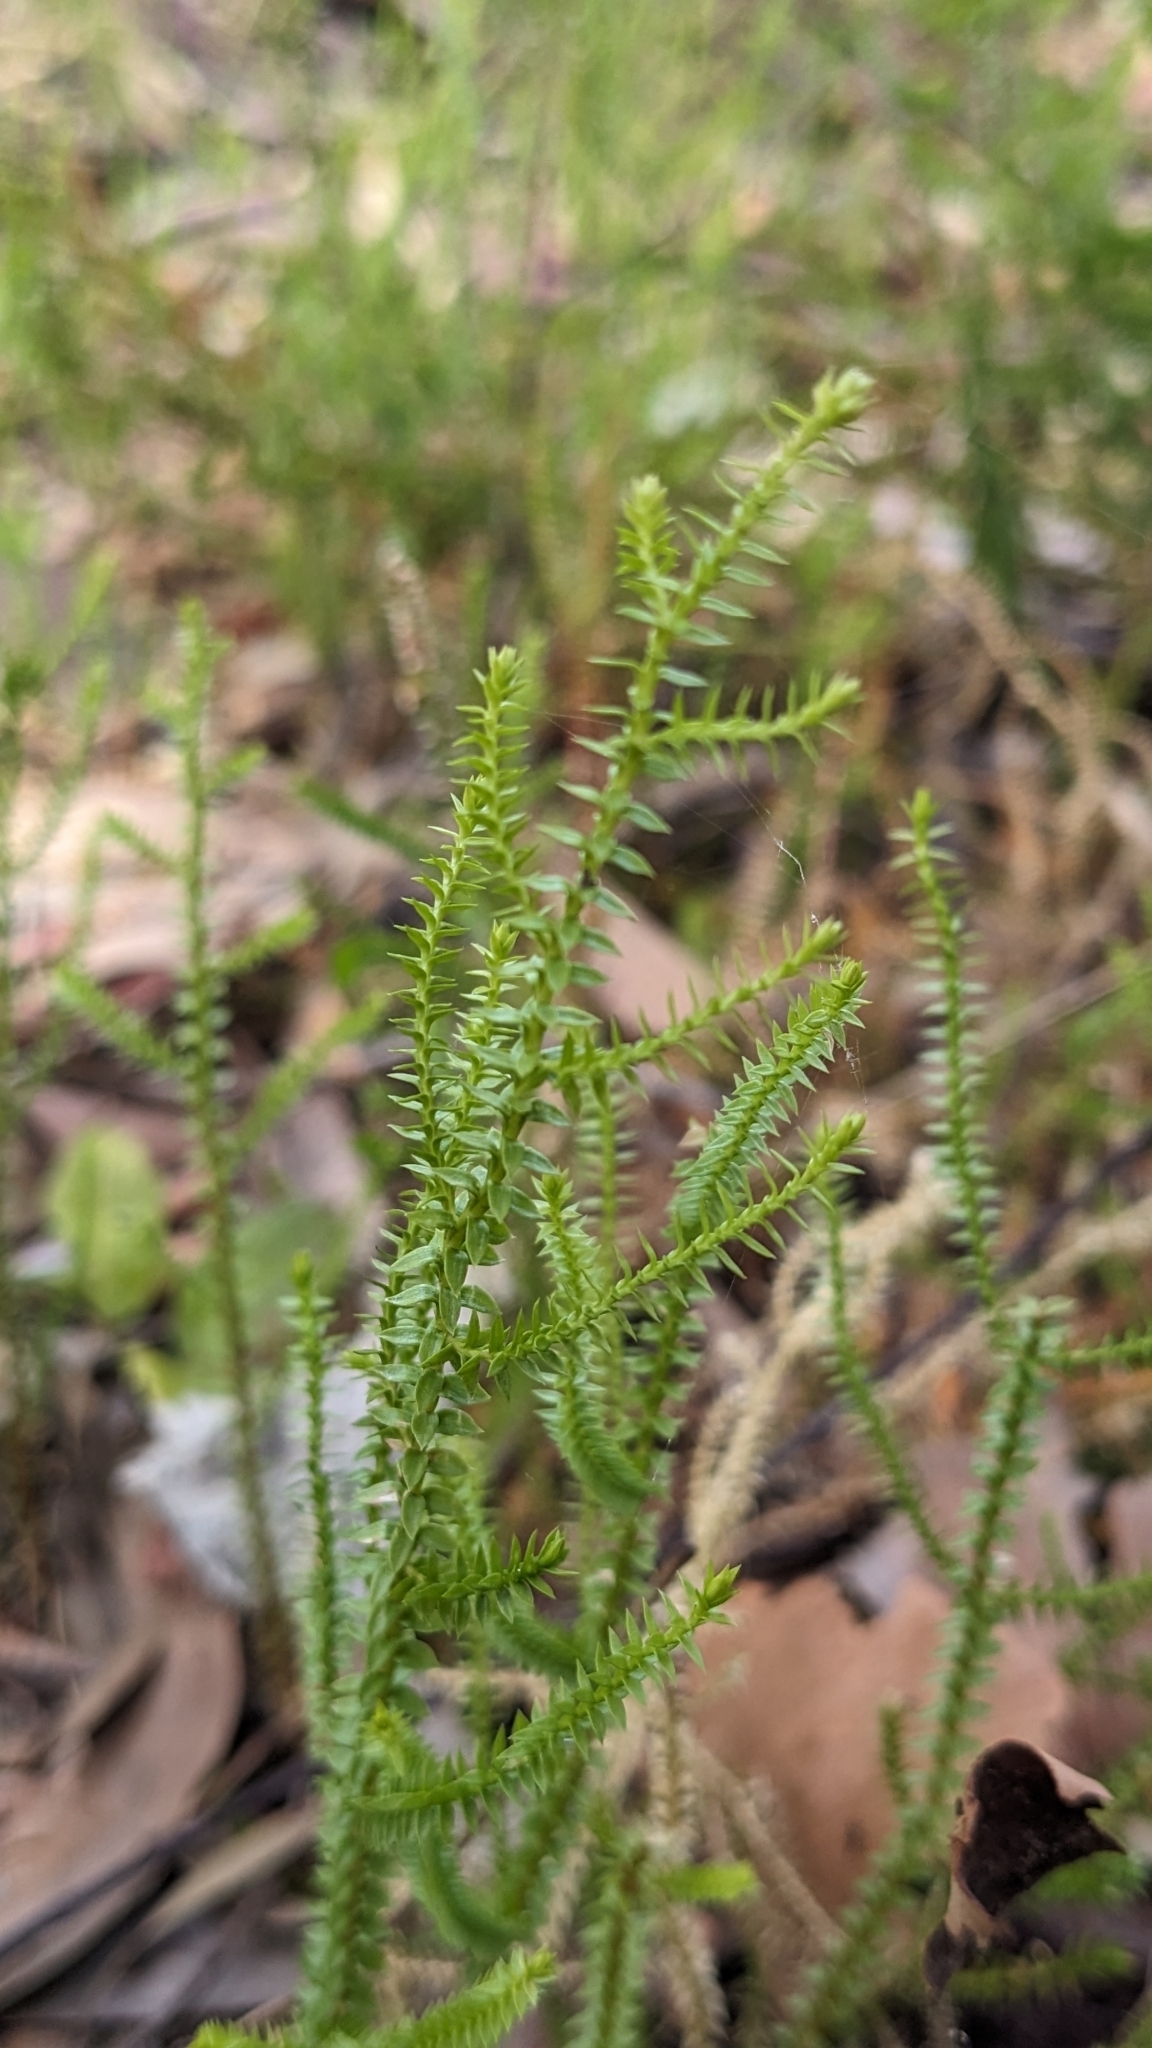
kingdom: Plantae
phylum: Tracheophyta
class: Lycopodiopsida
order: Selaginellales
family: Selaginellaceae
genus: Selaginella
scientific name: Selaginella uliginosa
